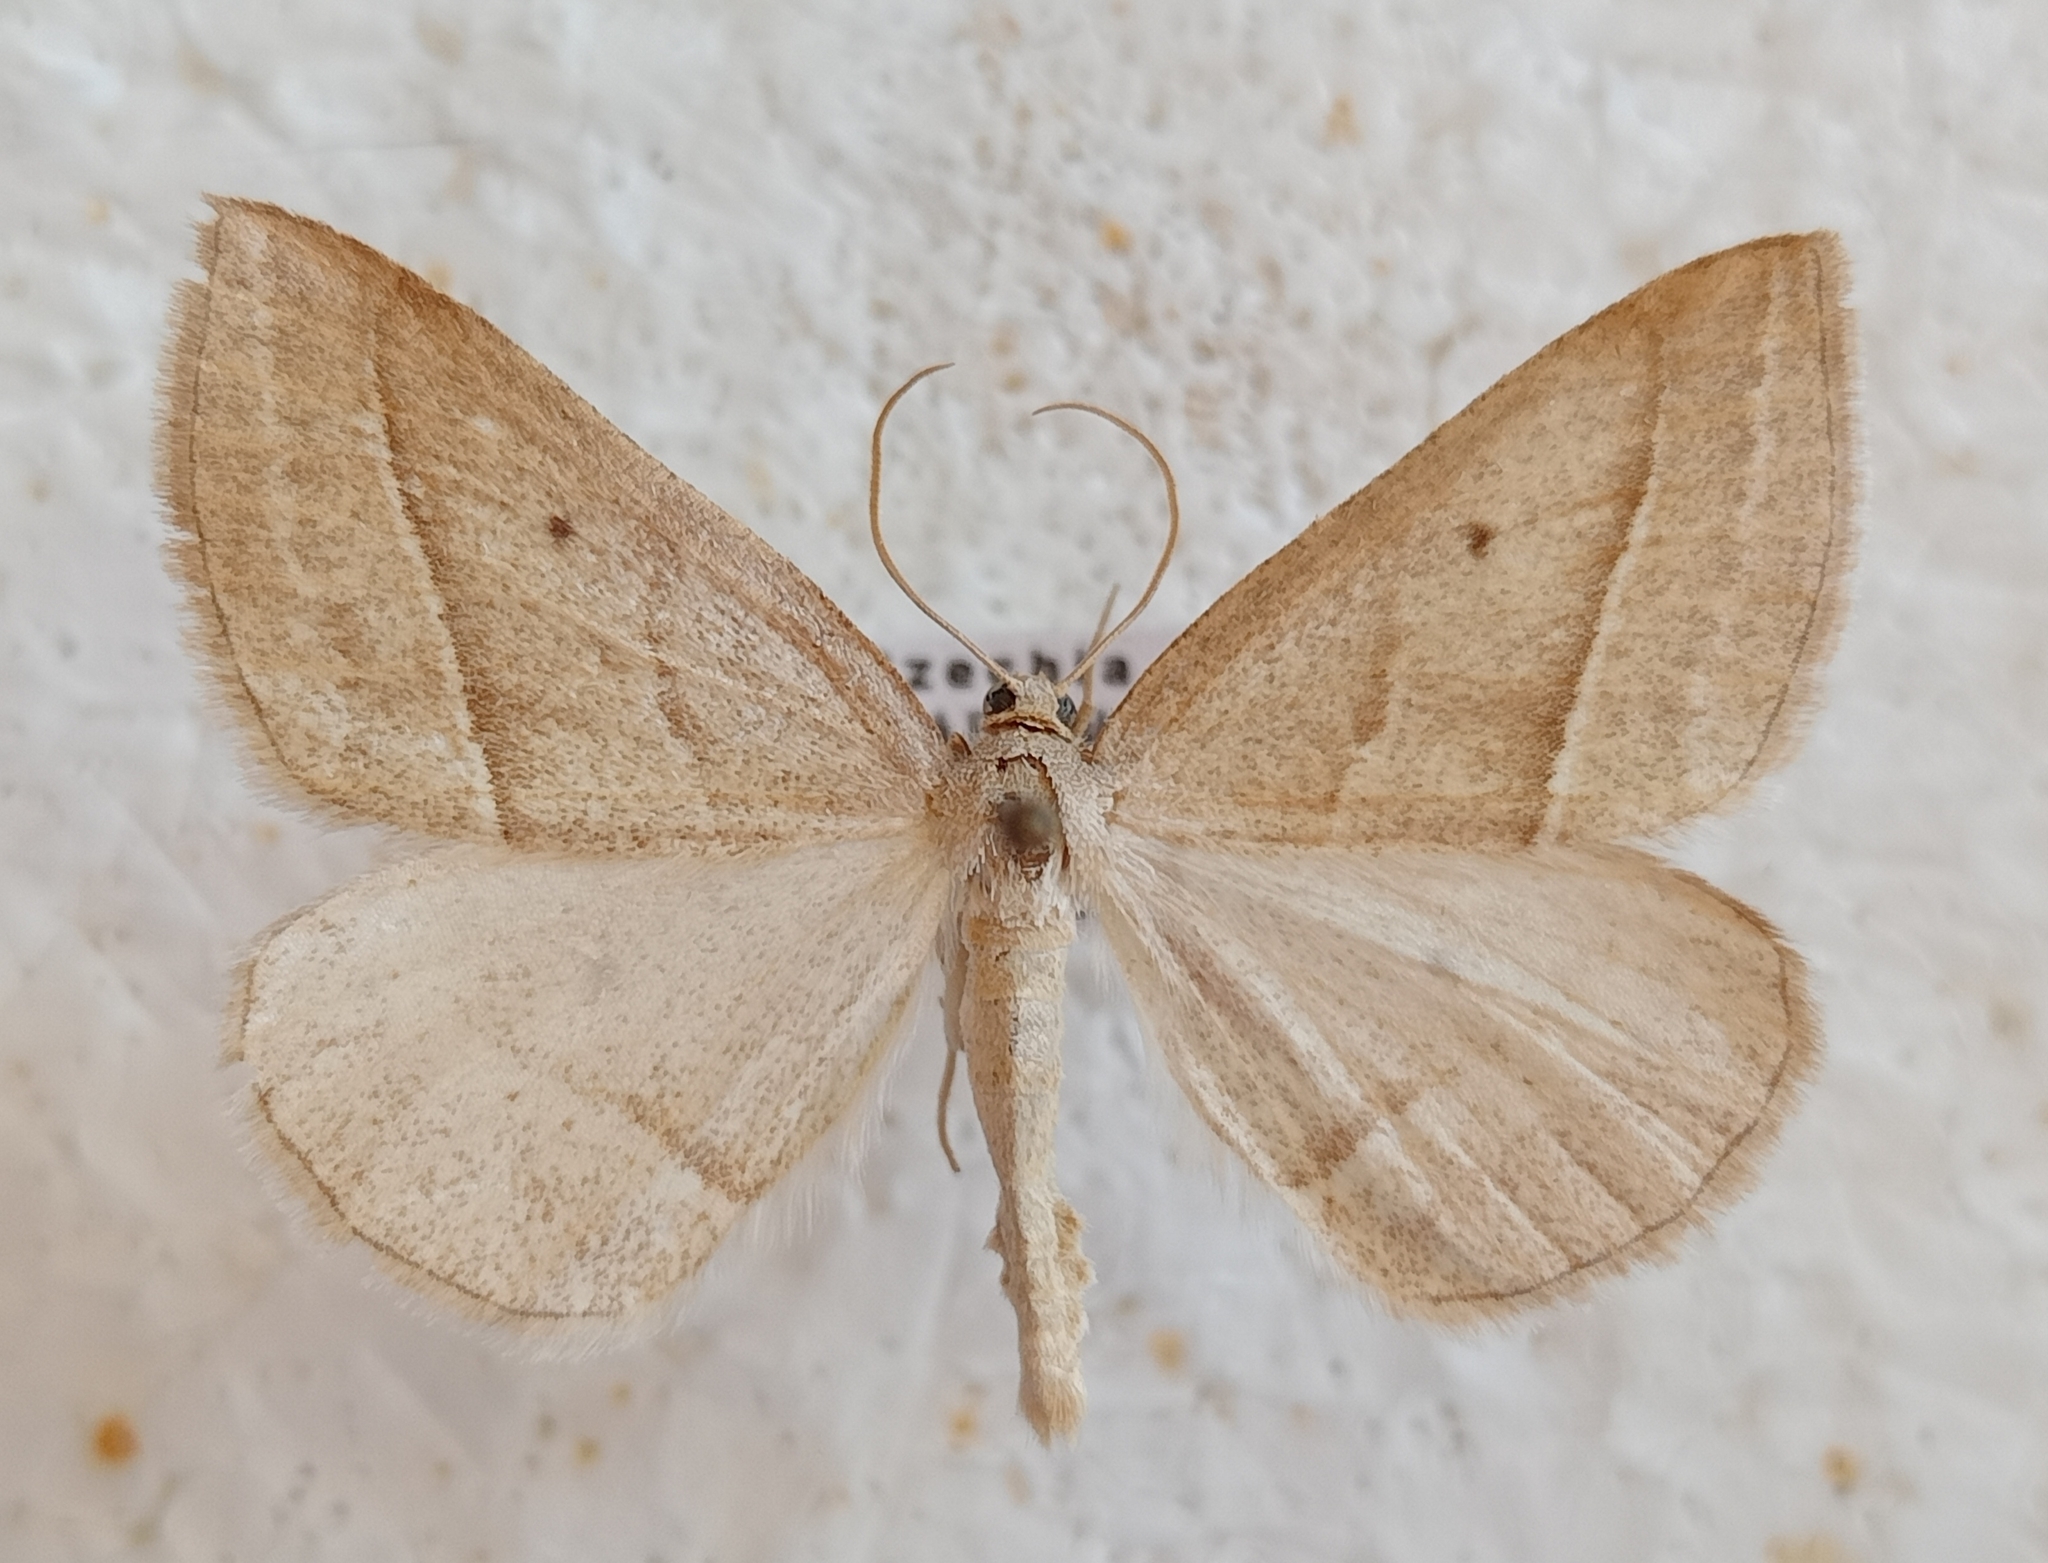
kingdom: Animalia
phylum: Arthropoda
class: Insecta
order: Lepidoptera
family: Pterophoridae
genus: Pterophorus
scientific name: Pterophorus Petrophora chlorosata
